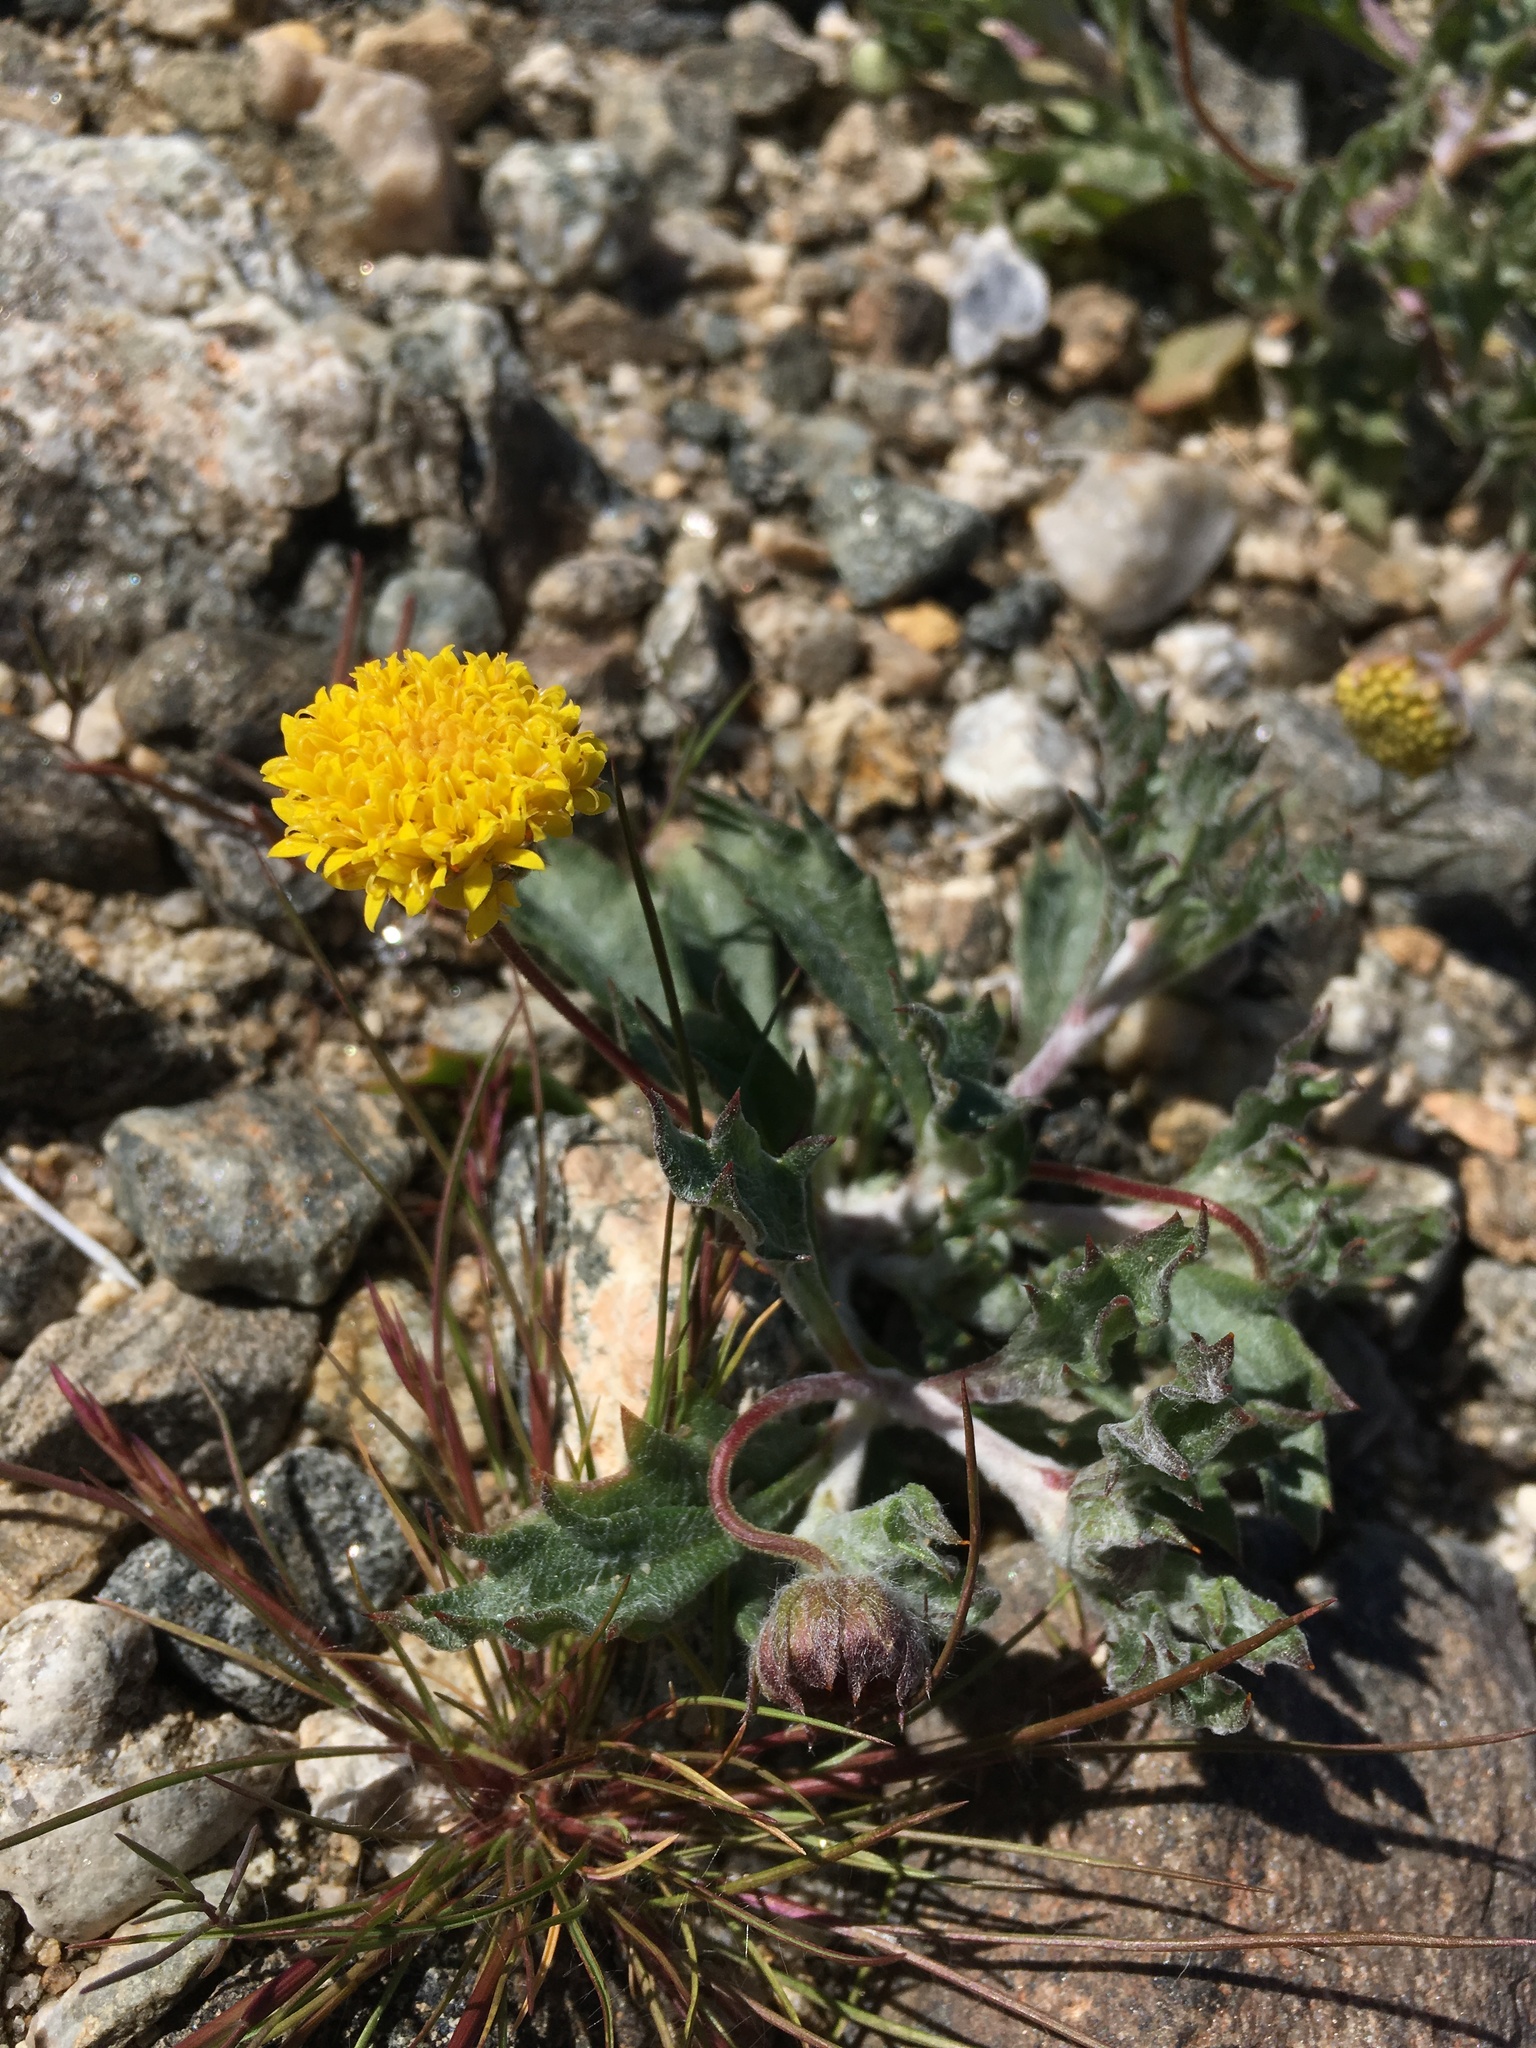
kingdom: Plantae
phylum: Tracheophyta
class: Magnoliopsida
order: Asterales
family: Asteraceae
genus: Trichoptilium
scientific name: Trichoptilium incisum
